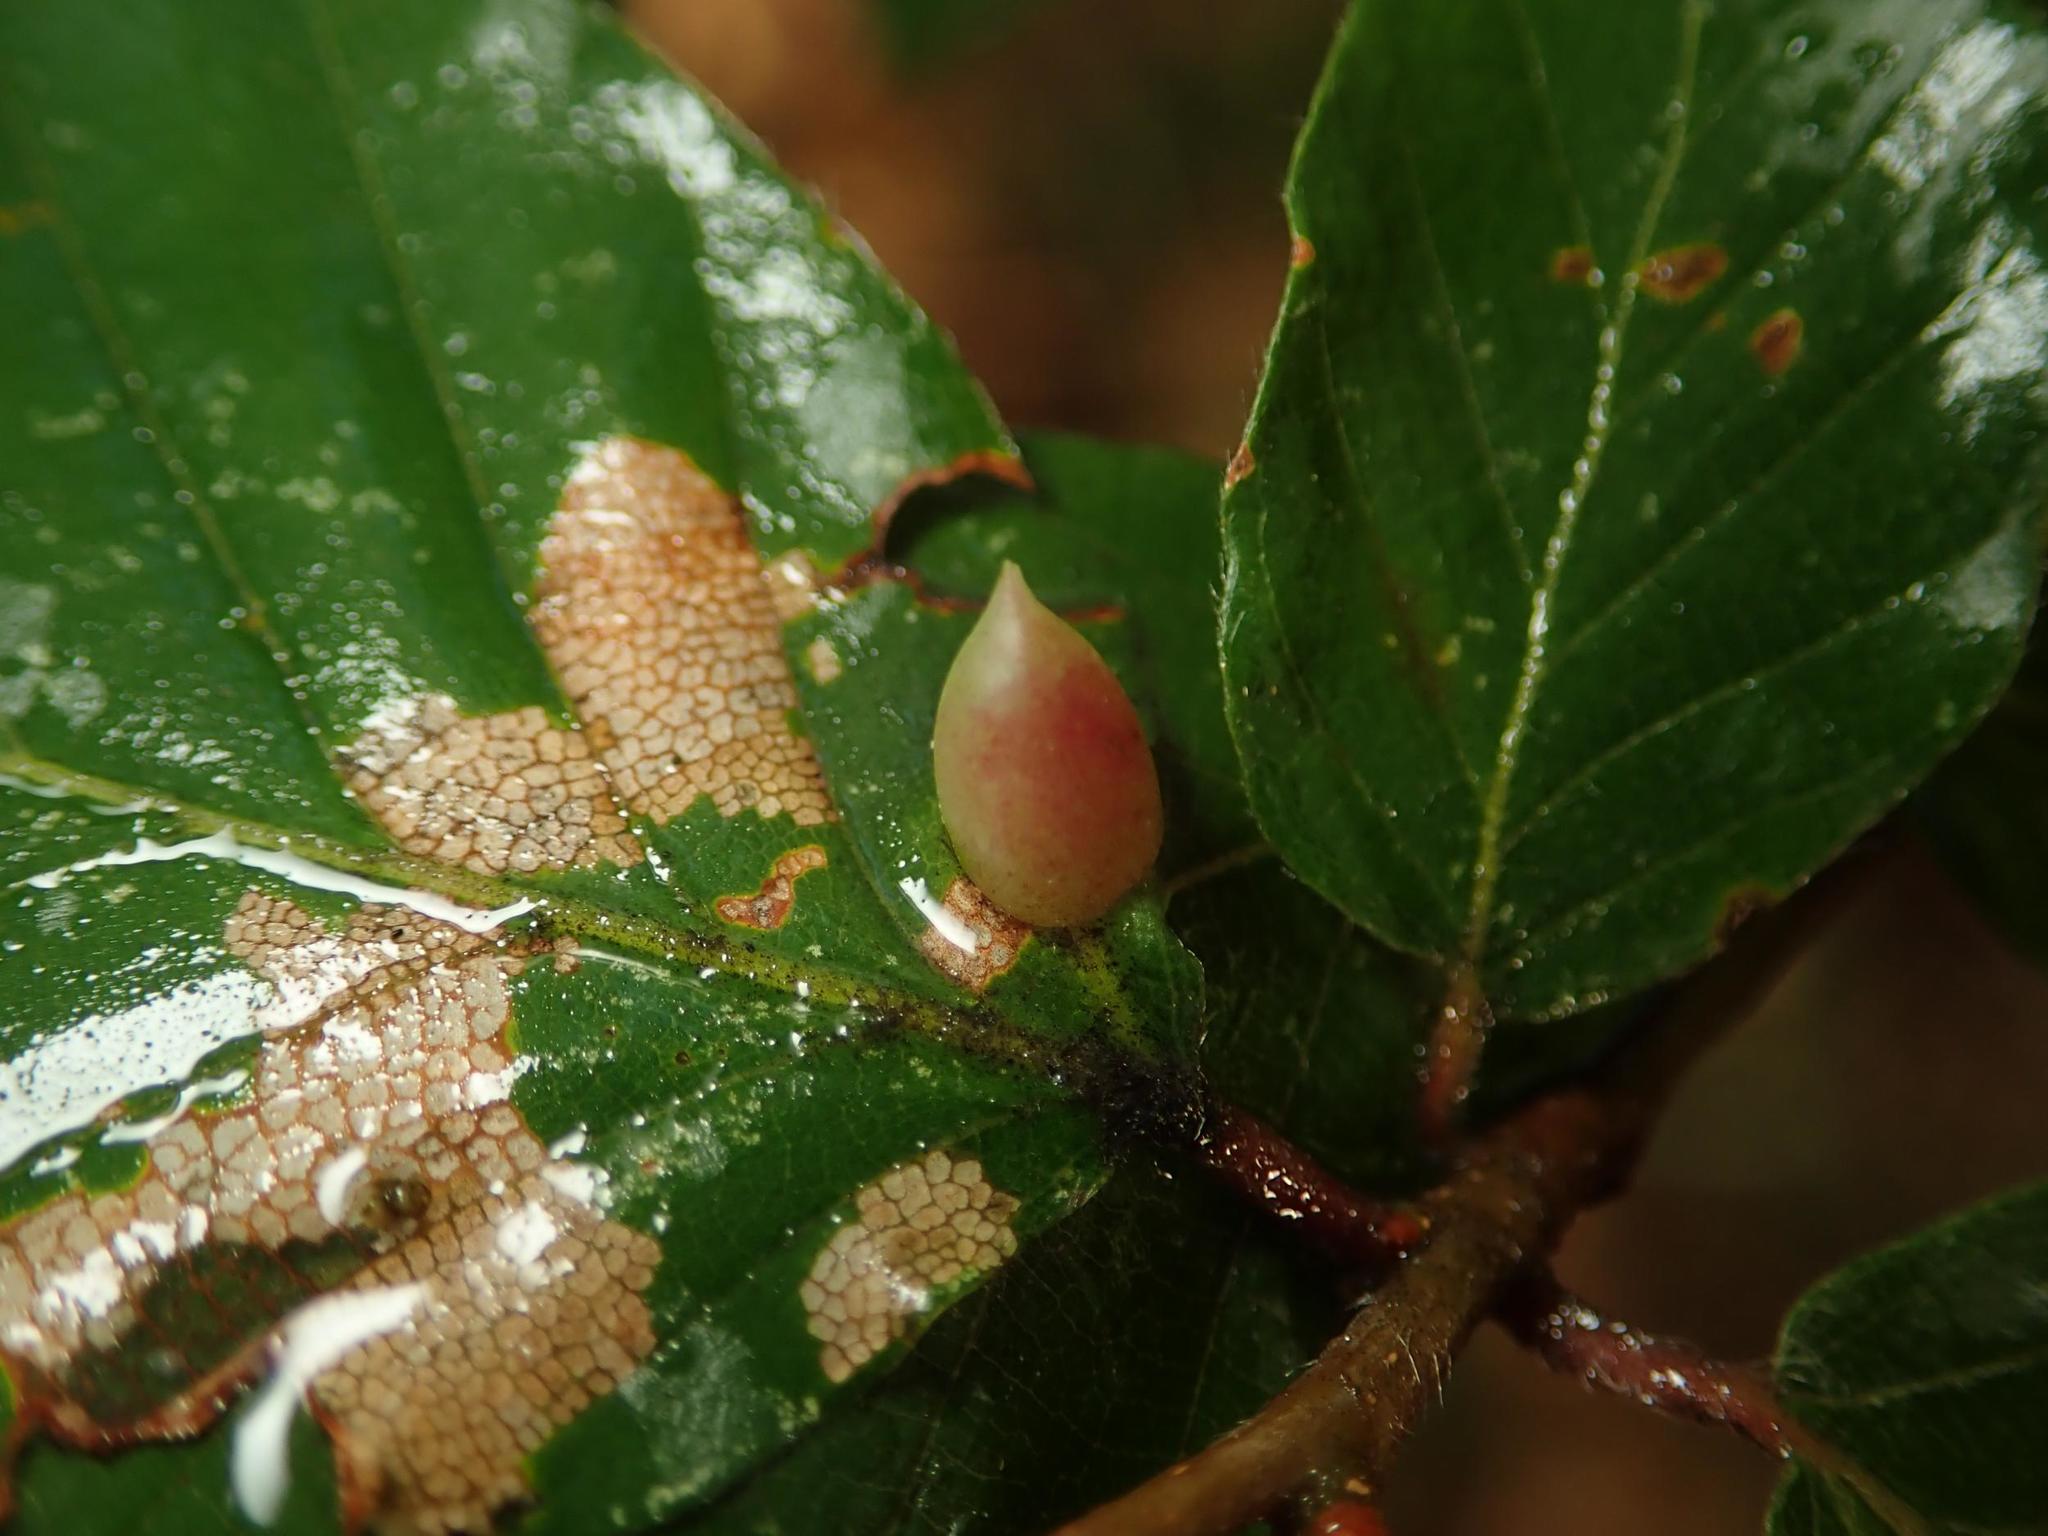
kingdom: Animalia
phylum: Arthropoda
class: Insecta
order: Diptera
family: Cecidomyiidae
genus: Mikiola
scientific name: Mikiola fagi
